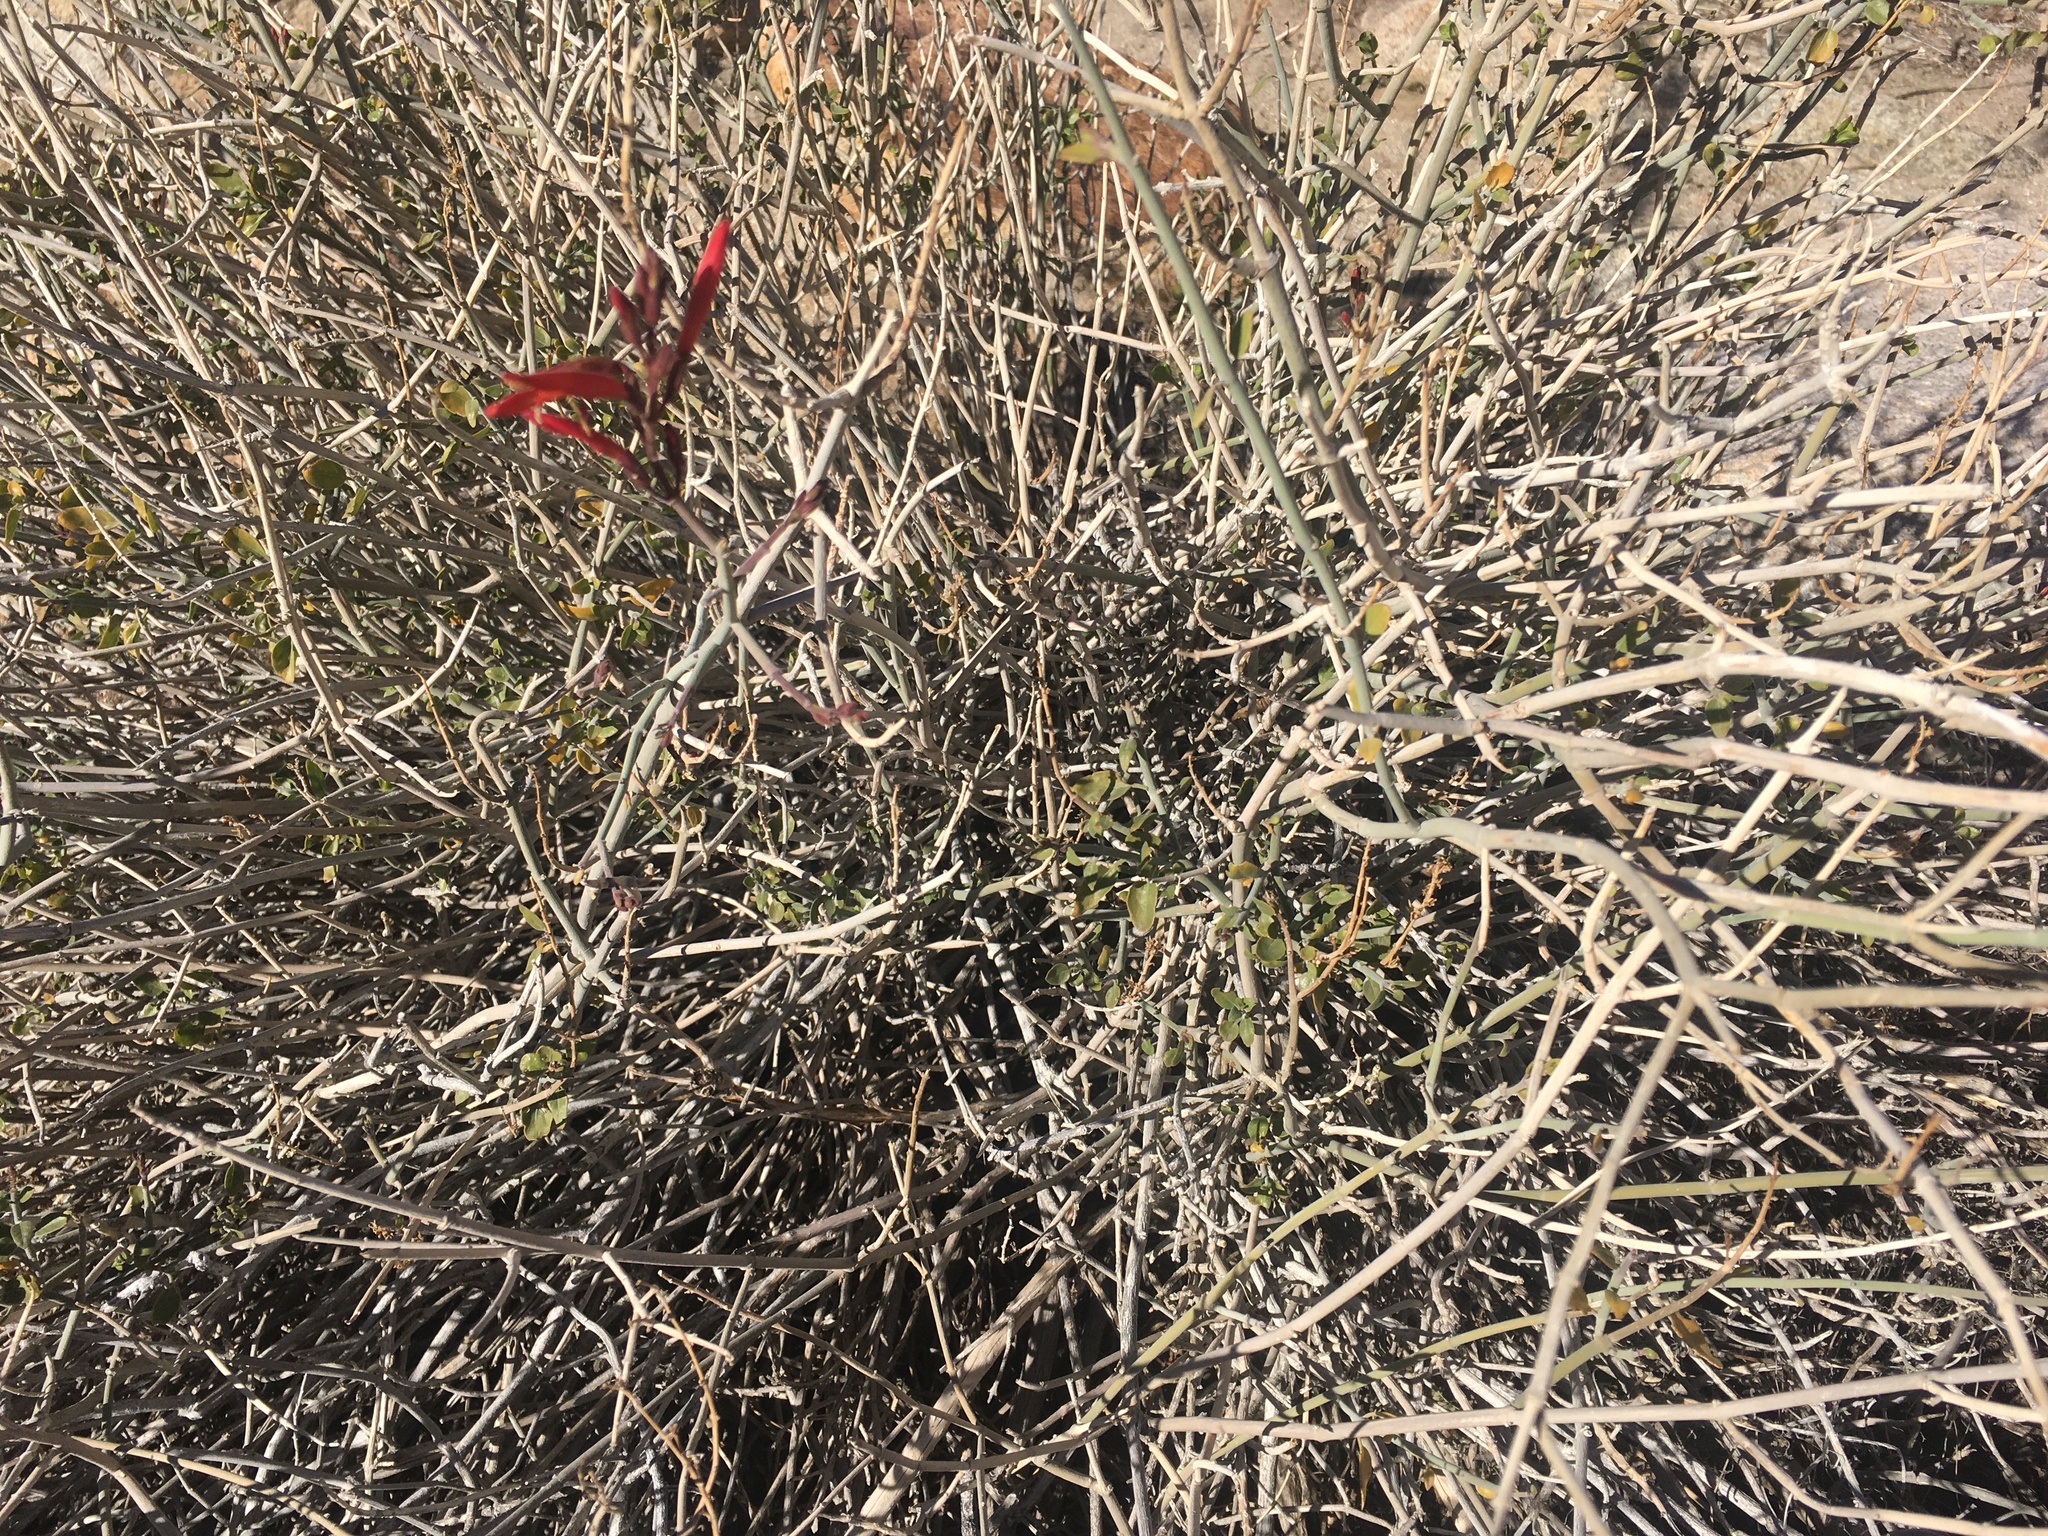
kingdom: Plantae
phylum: Tracheophyta
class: Magnoliopsida
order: Lamiales
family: Acanthaceae
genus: Justicia
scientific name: Justicia californica
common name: Chuparosa-honeysuckle
